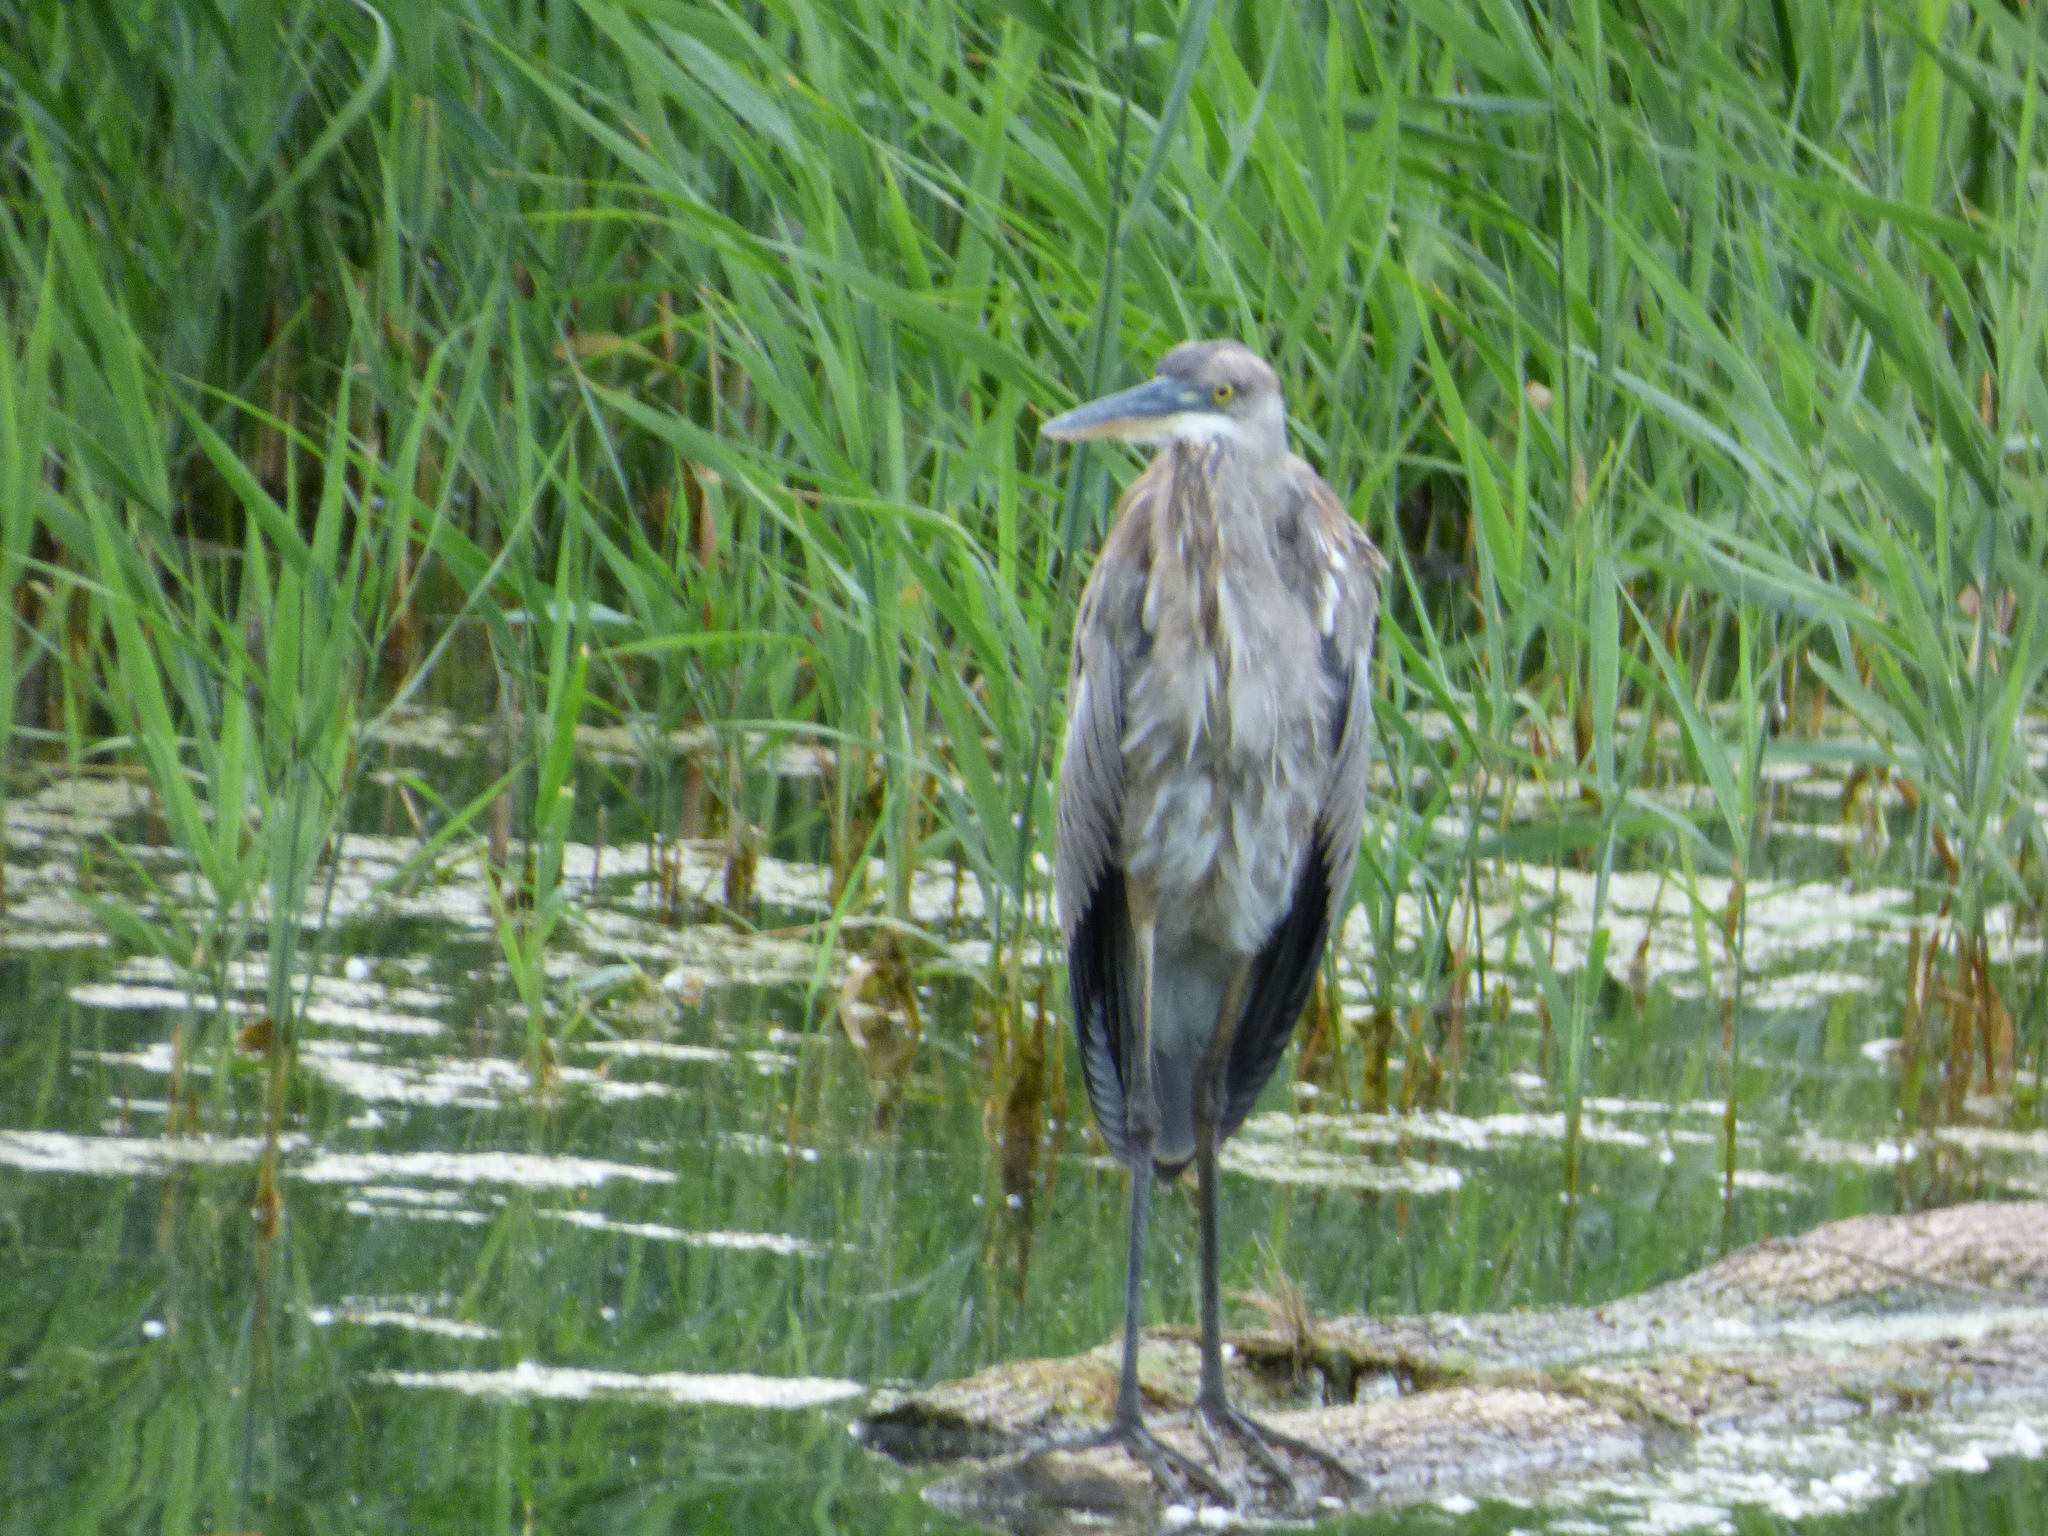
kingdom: Animalia
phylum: Chordata
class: Aves
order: Pelecaniformes
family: Ardeidae
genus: Ardea
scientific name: Ardea herodias
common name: Great blue heron
